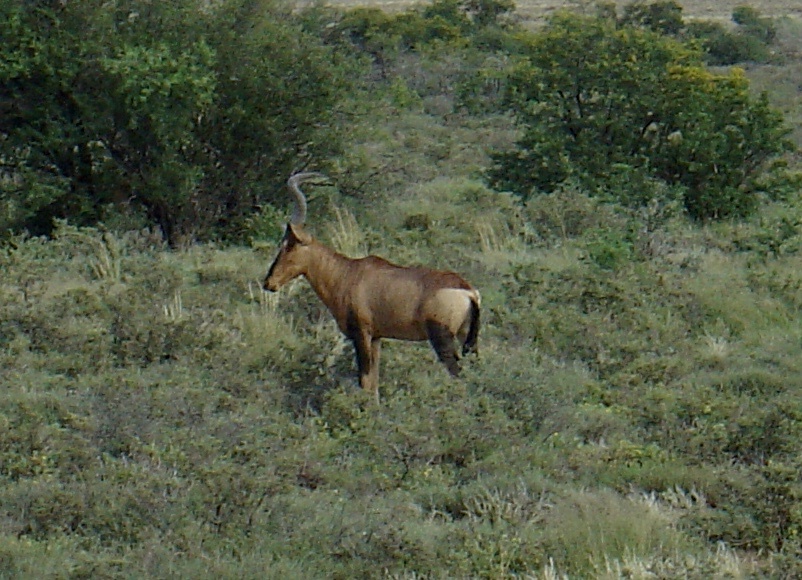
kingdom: Animalia
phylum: Chordata
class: Mammalia
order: Artiodactyla
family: Bovidae
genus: Alcelaphus
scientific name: Alcelaphus caama
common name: Red hartebeest
